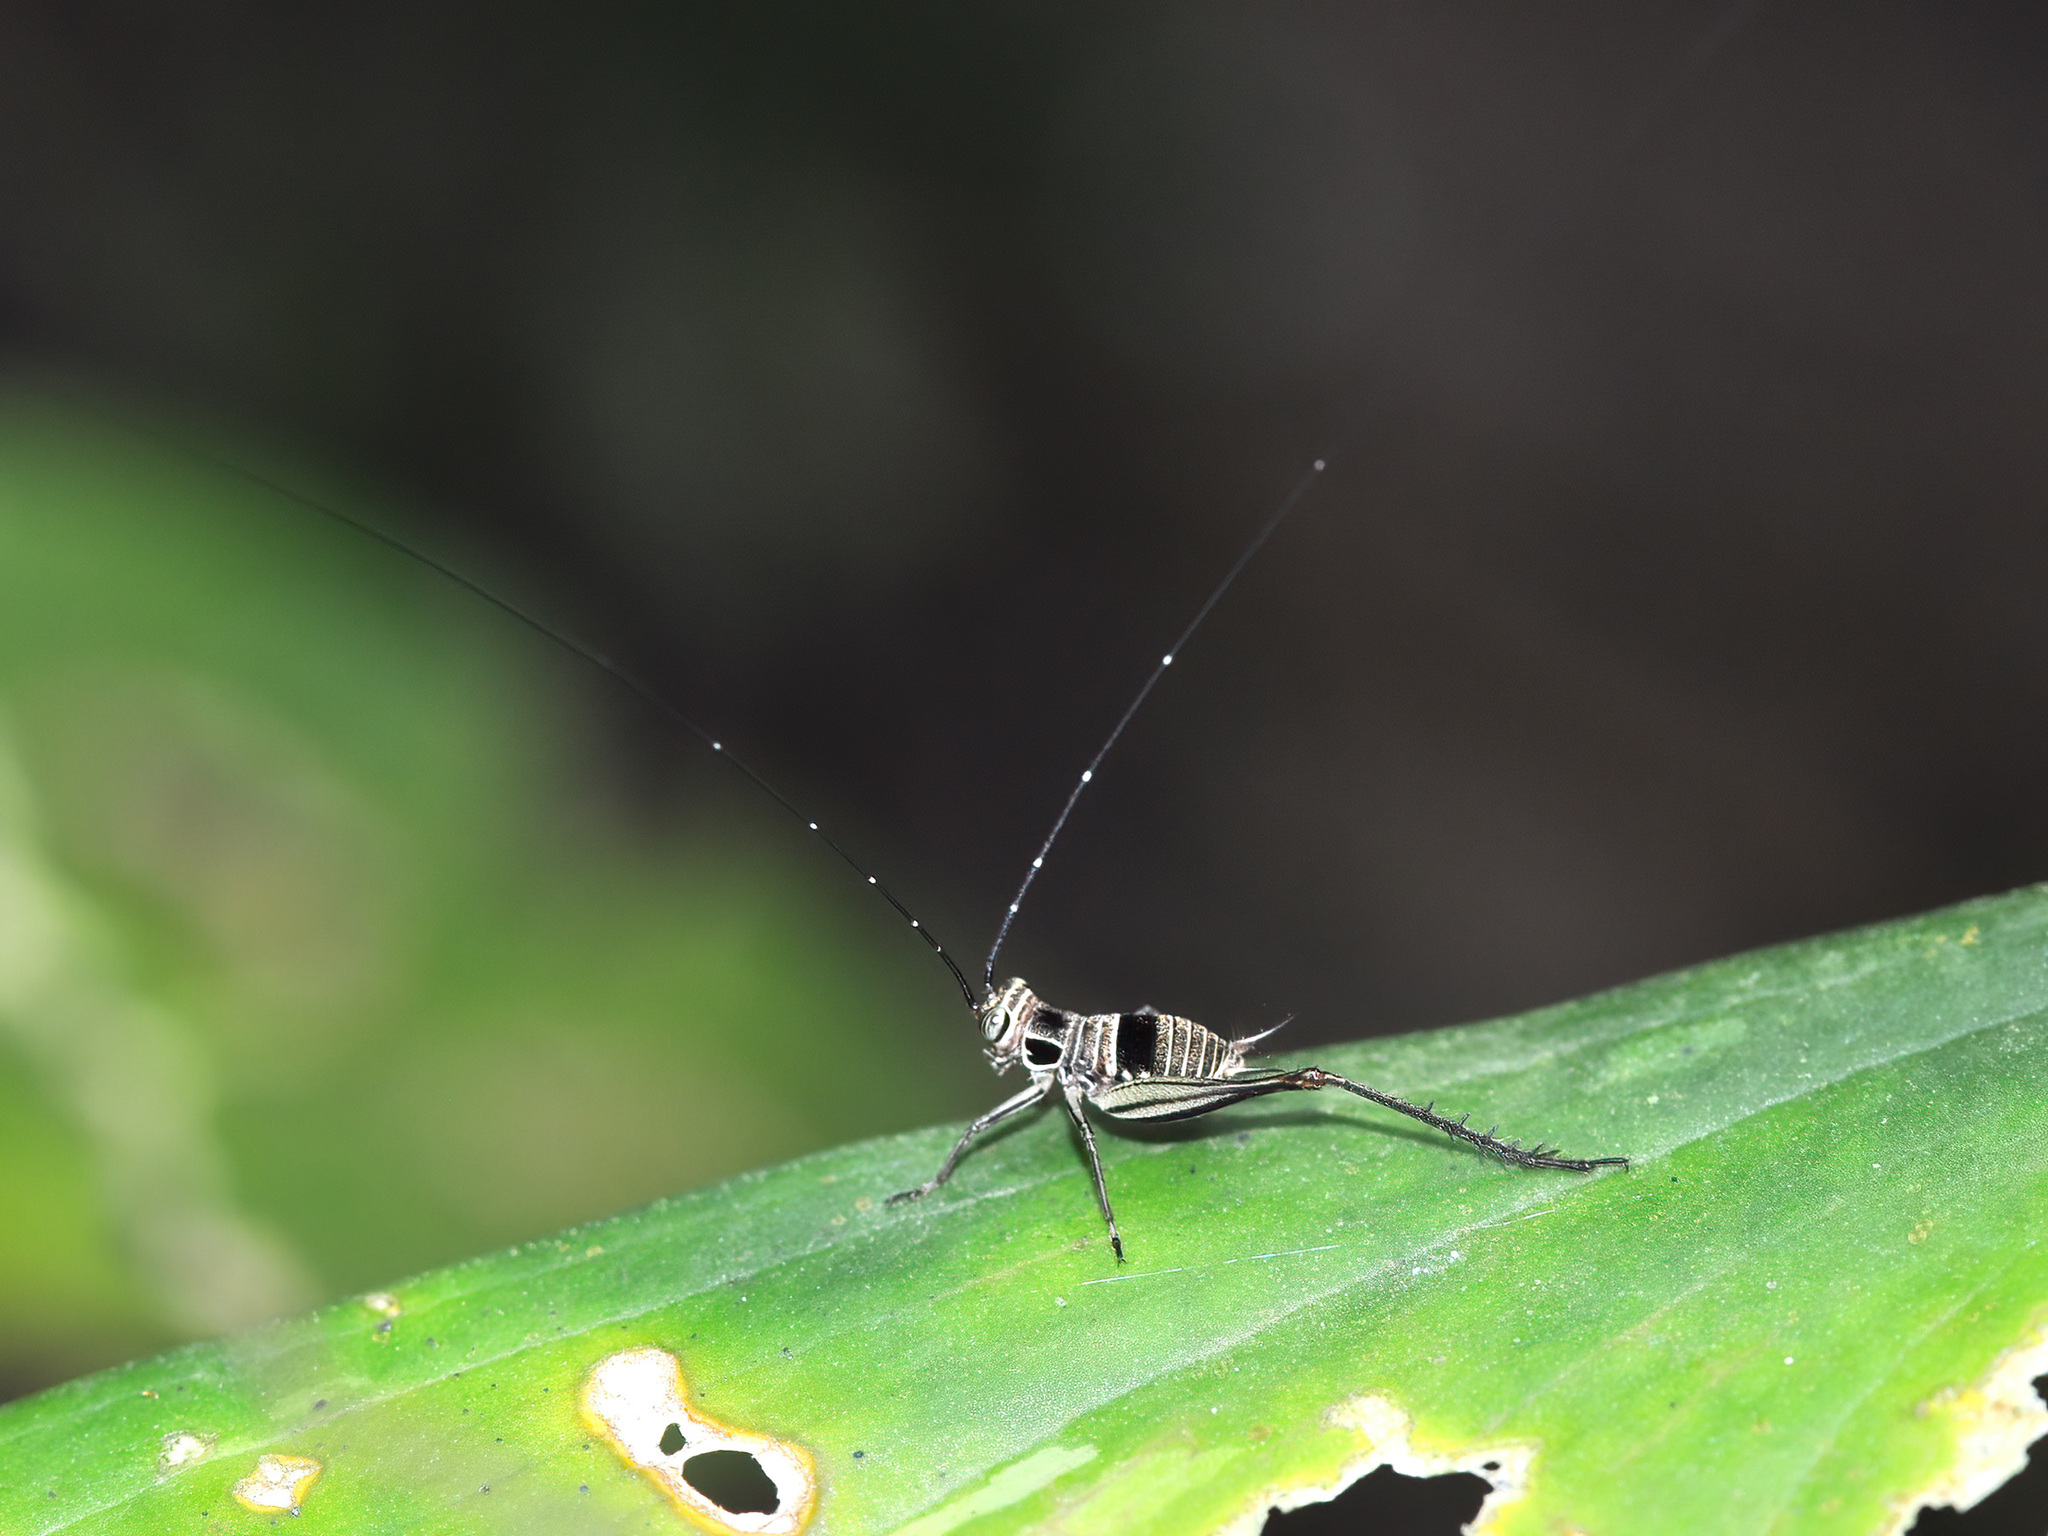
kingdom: Animalia
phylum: Arthropoda
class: Insecta
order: Orthoptera
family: Gryllidae
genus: Nisitrus
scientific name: Nisitrus malaya
